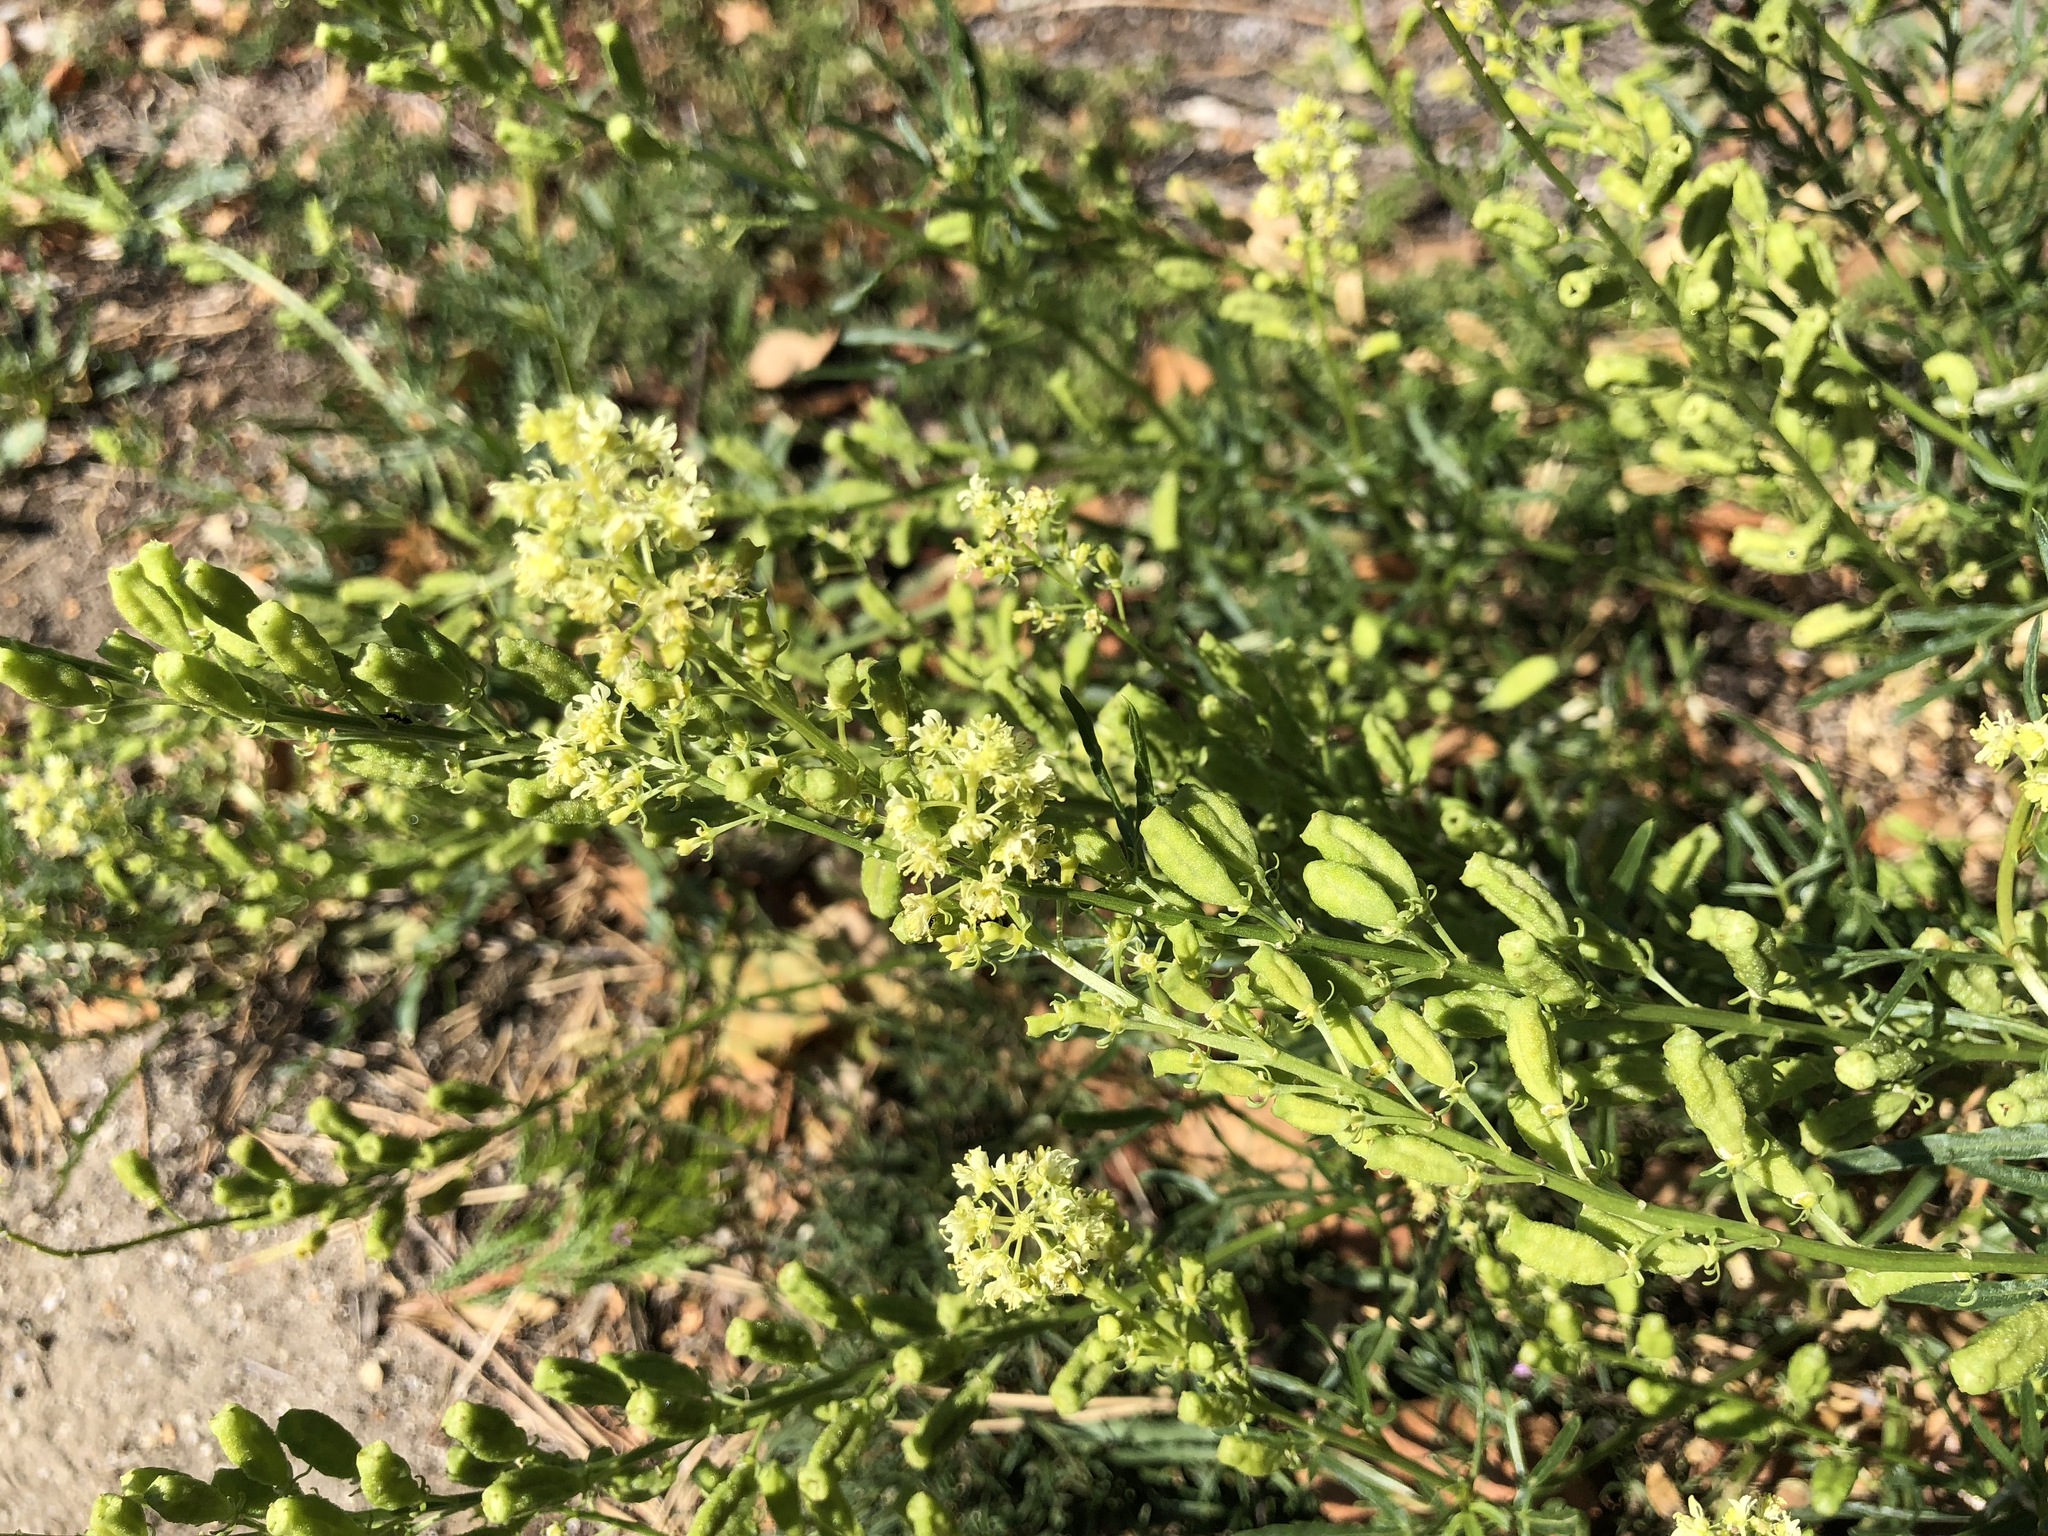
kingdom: Plantae
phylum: Tracheophyta
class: Magnoliopsida
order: Brassicales
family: Resedaceae
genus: Reseda
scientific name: Reseda lutea
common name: Wild mignonette
